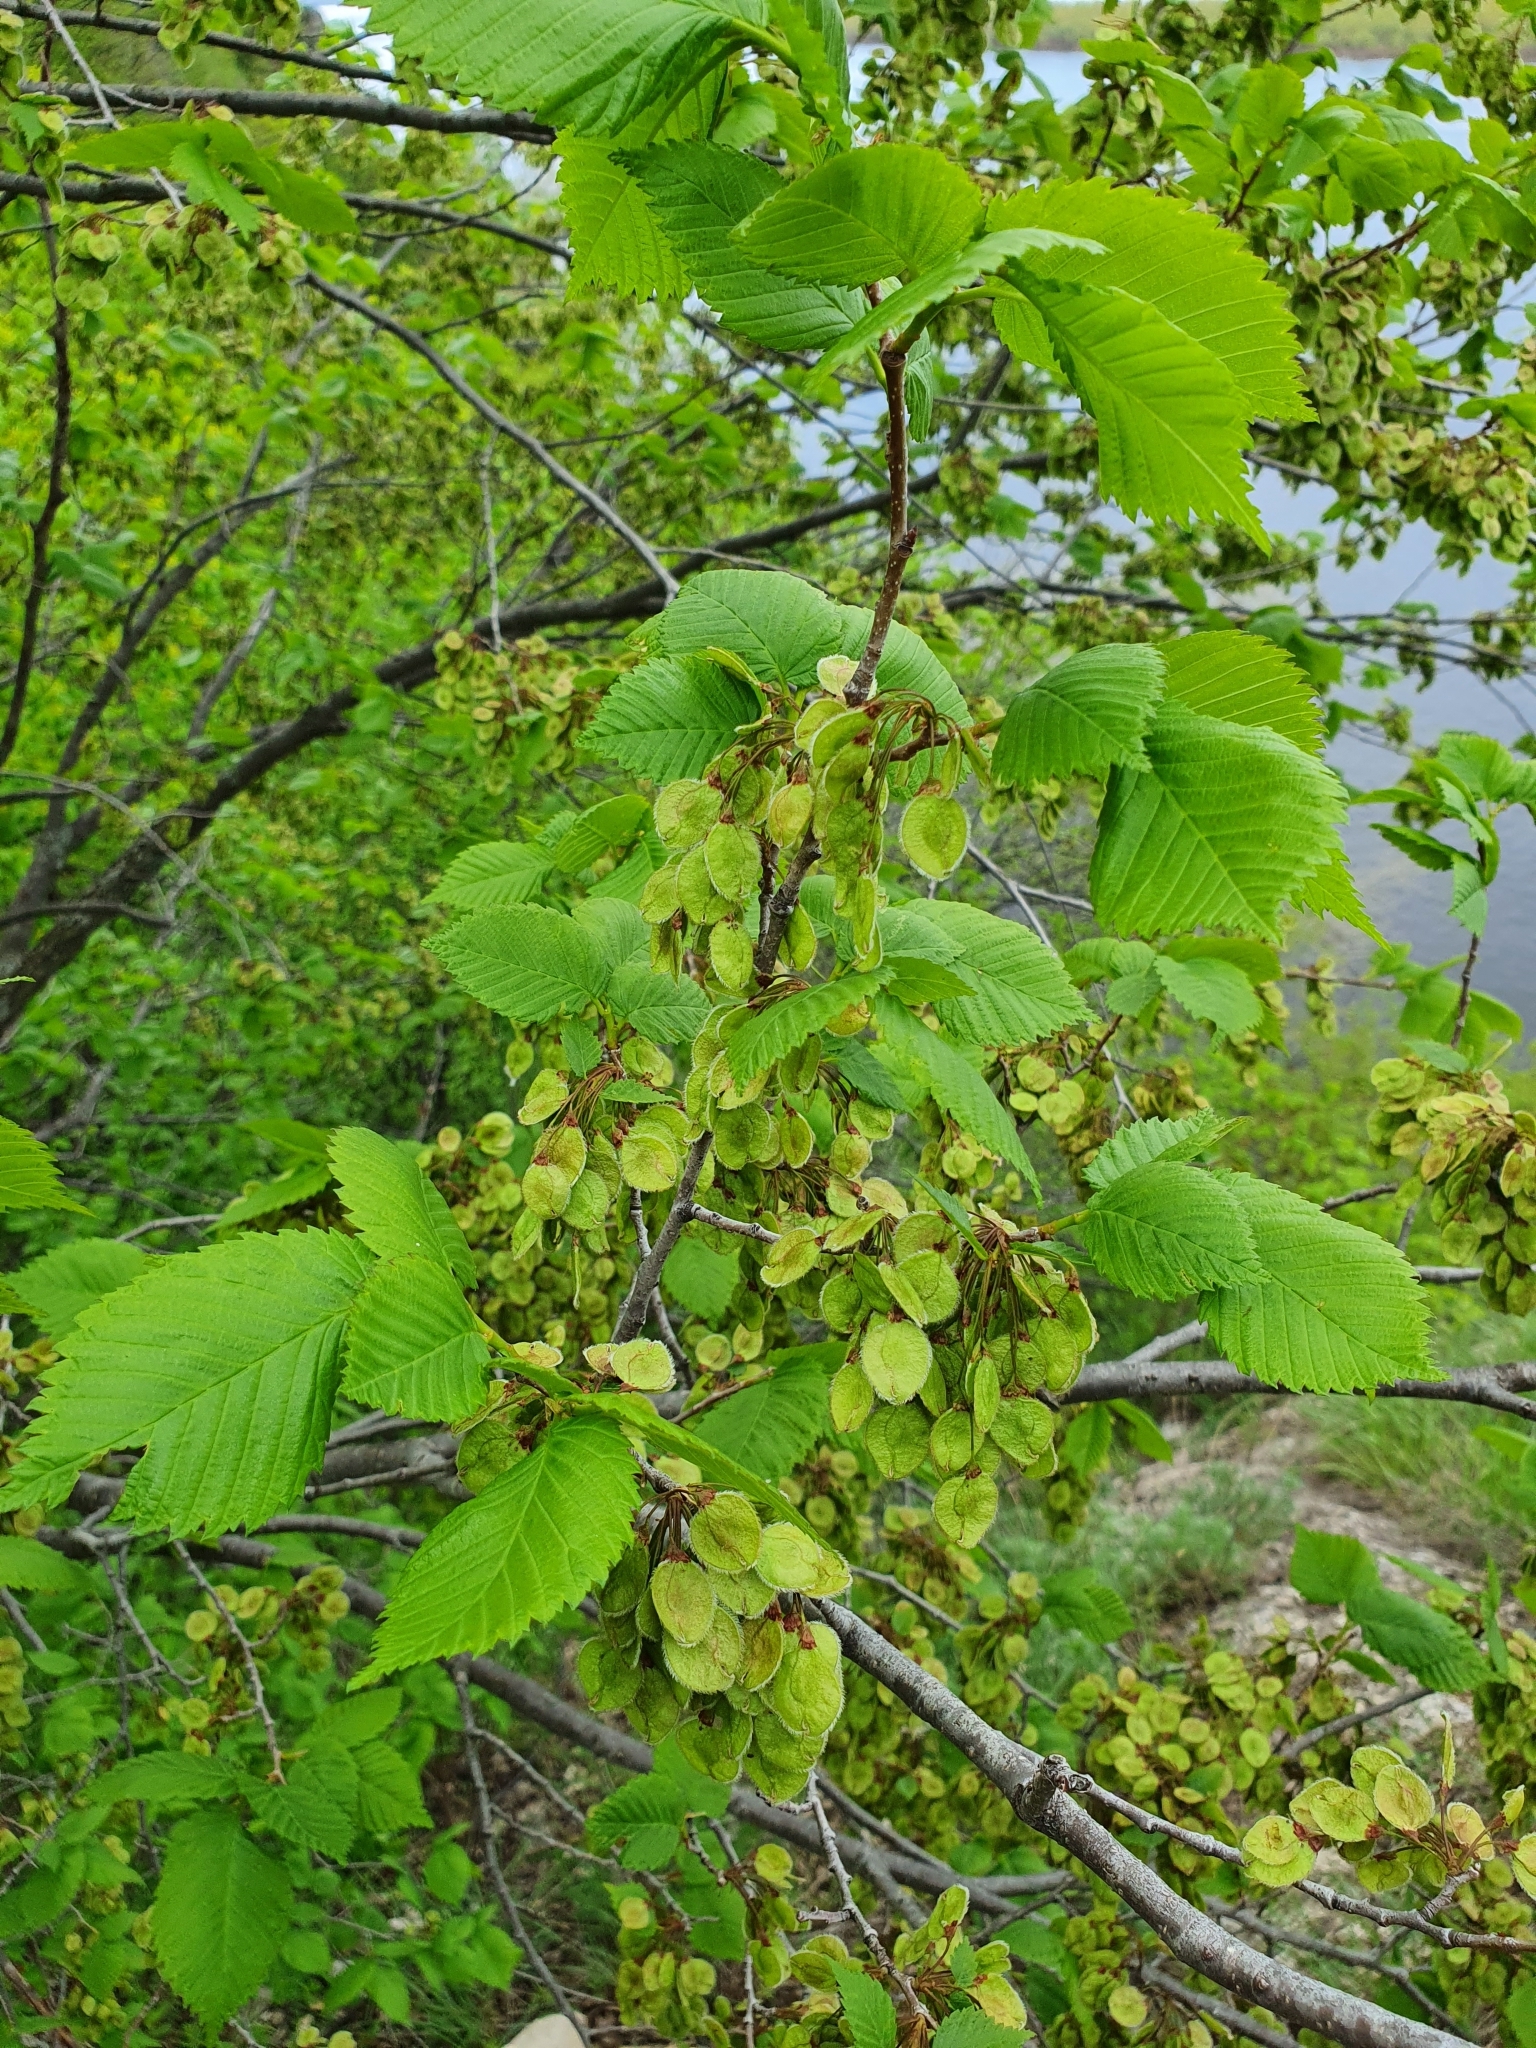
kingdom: Plantae
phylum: Tracheophyta
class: Magnoliopsida
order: Rosales
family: Ulmaceae
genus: Ulmus
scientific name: Ulmus laevis
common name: European white-elm
